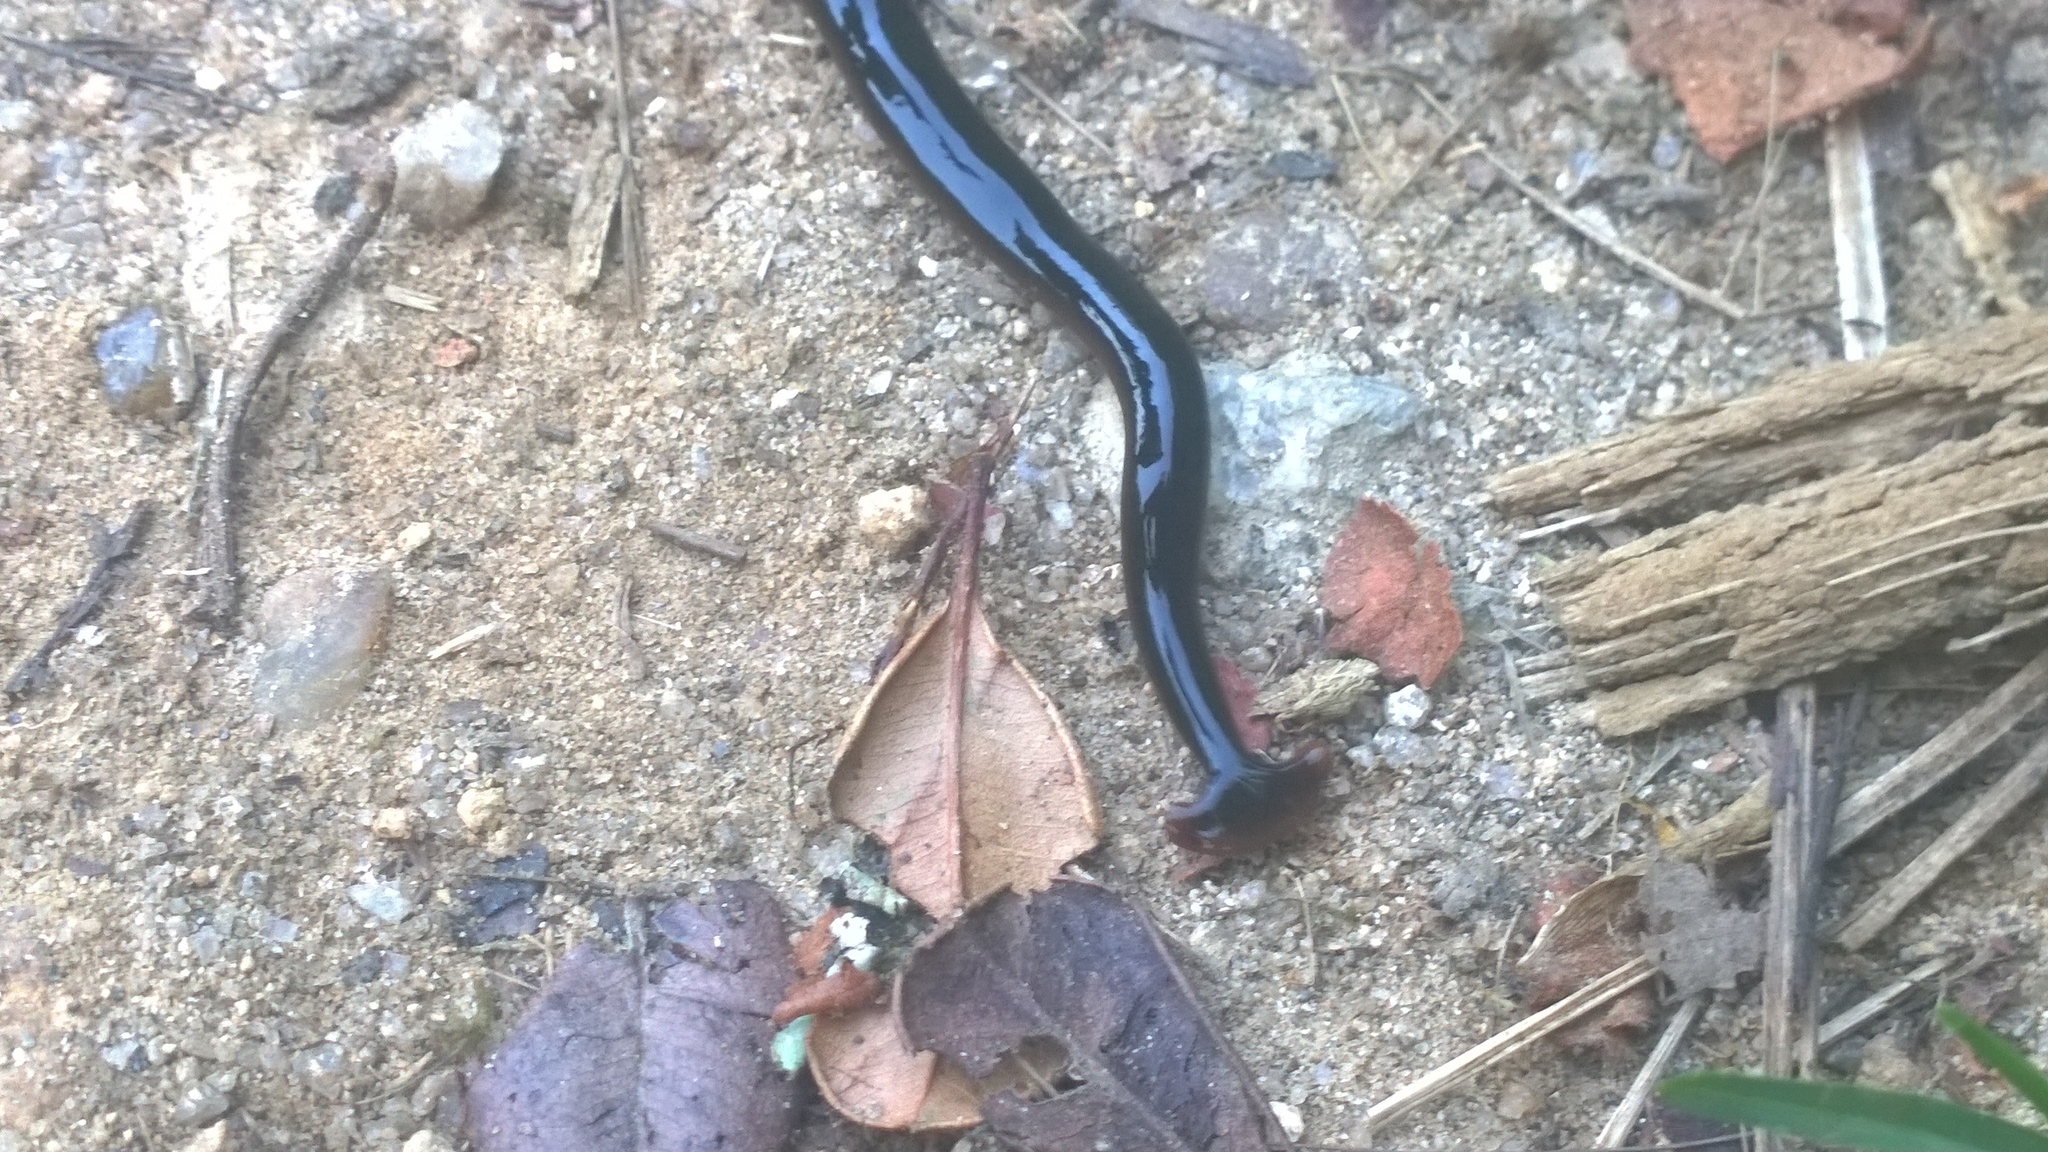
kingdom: Animalia
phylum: Platyhelminthes
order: Tricladida
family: Geoplanidae
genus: Humbertium
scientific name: Humbertium ferrugineoideum
